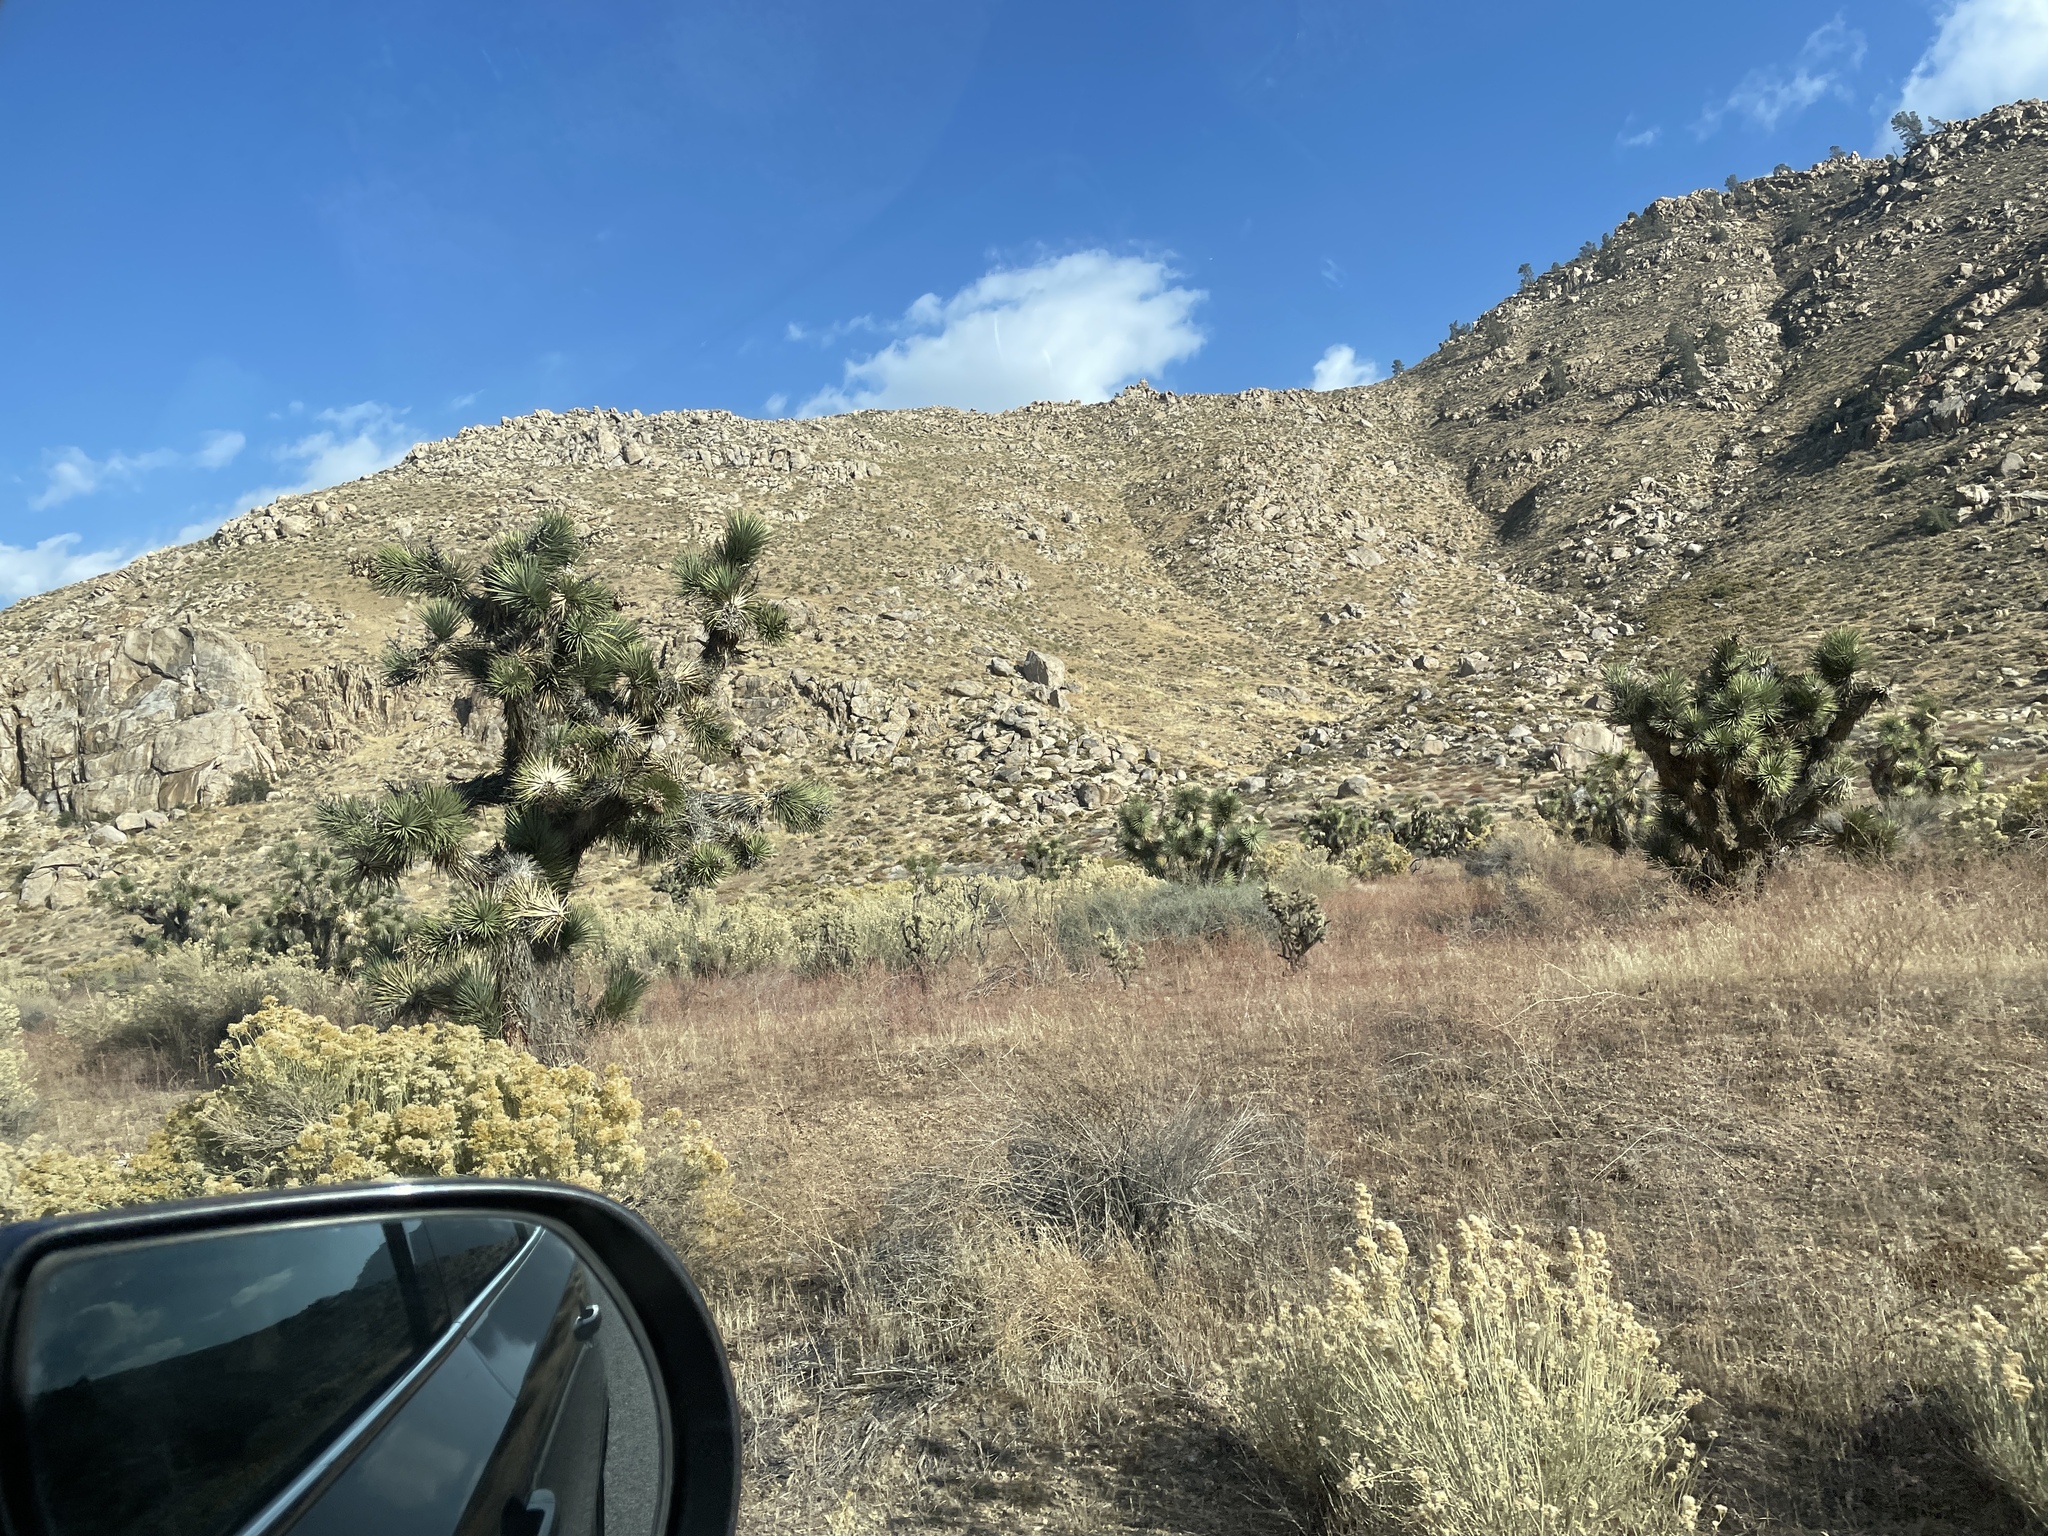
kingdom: Plantae
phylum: Tracheophyta
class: Liliopsida
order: Asparagales
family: Asparagaceae
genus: Yucca
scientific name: Yucca brevifolia
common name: Joshua tree
